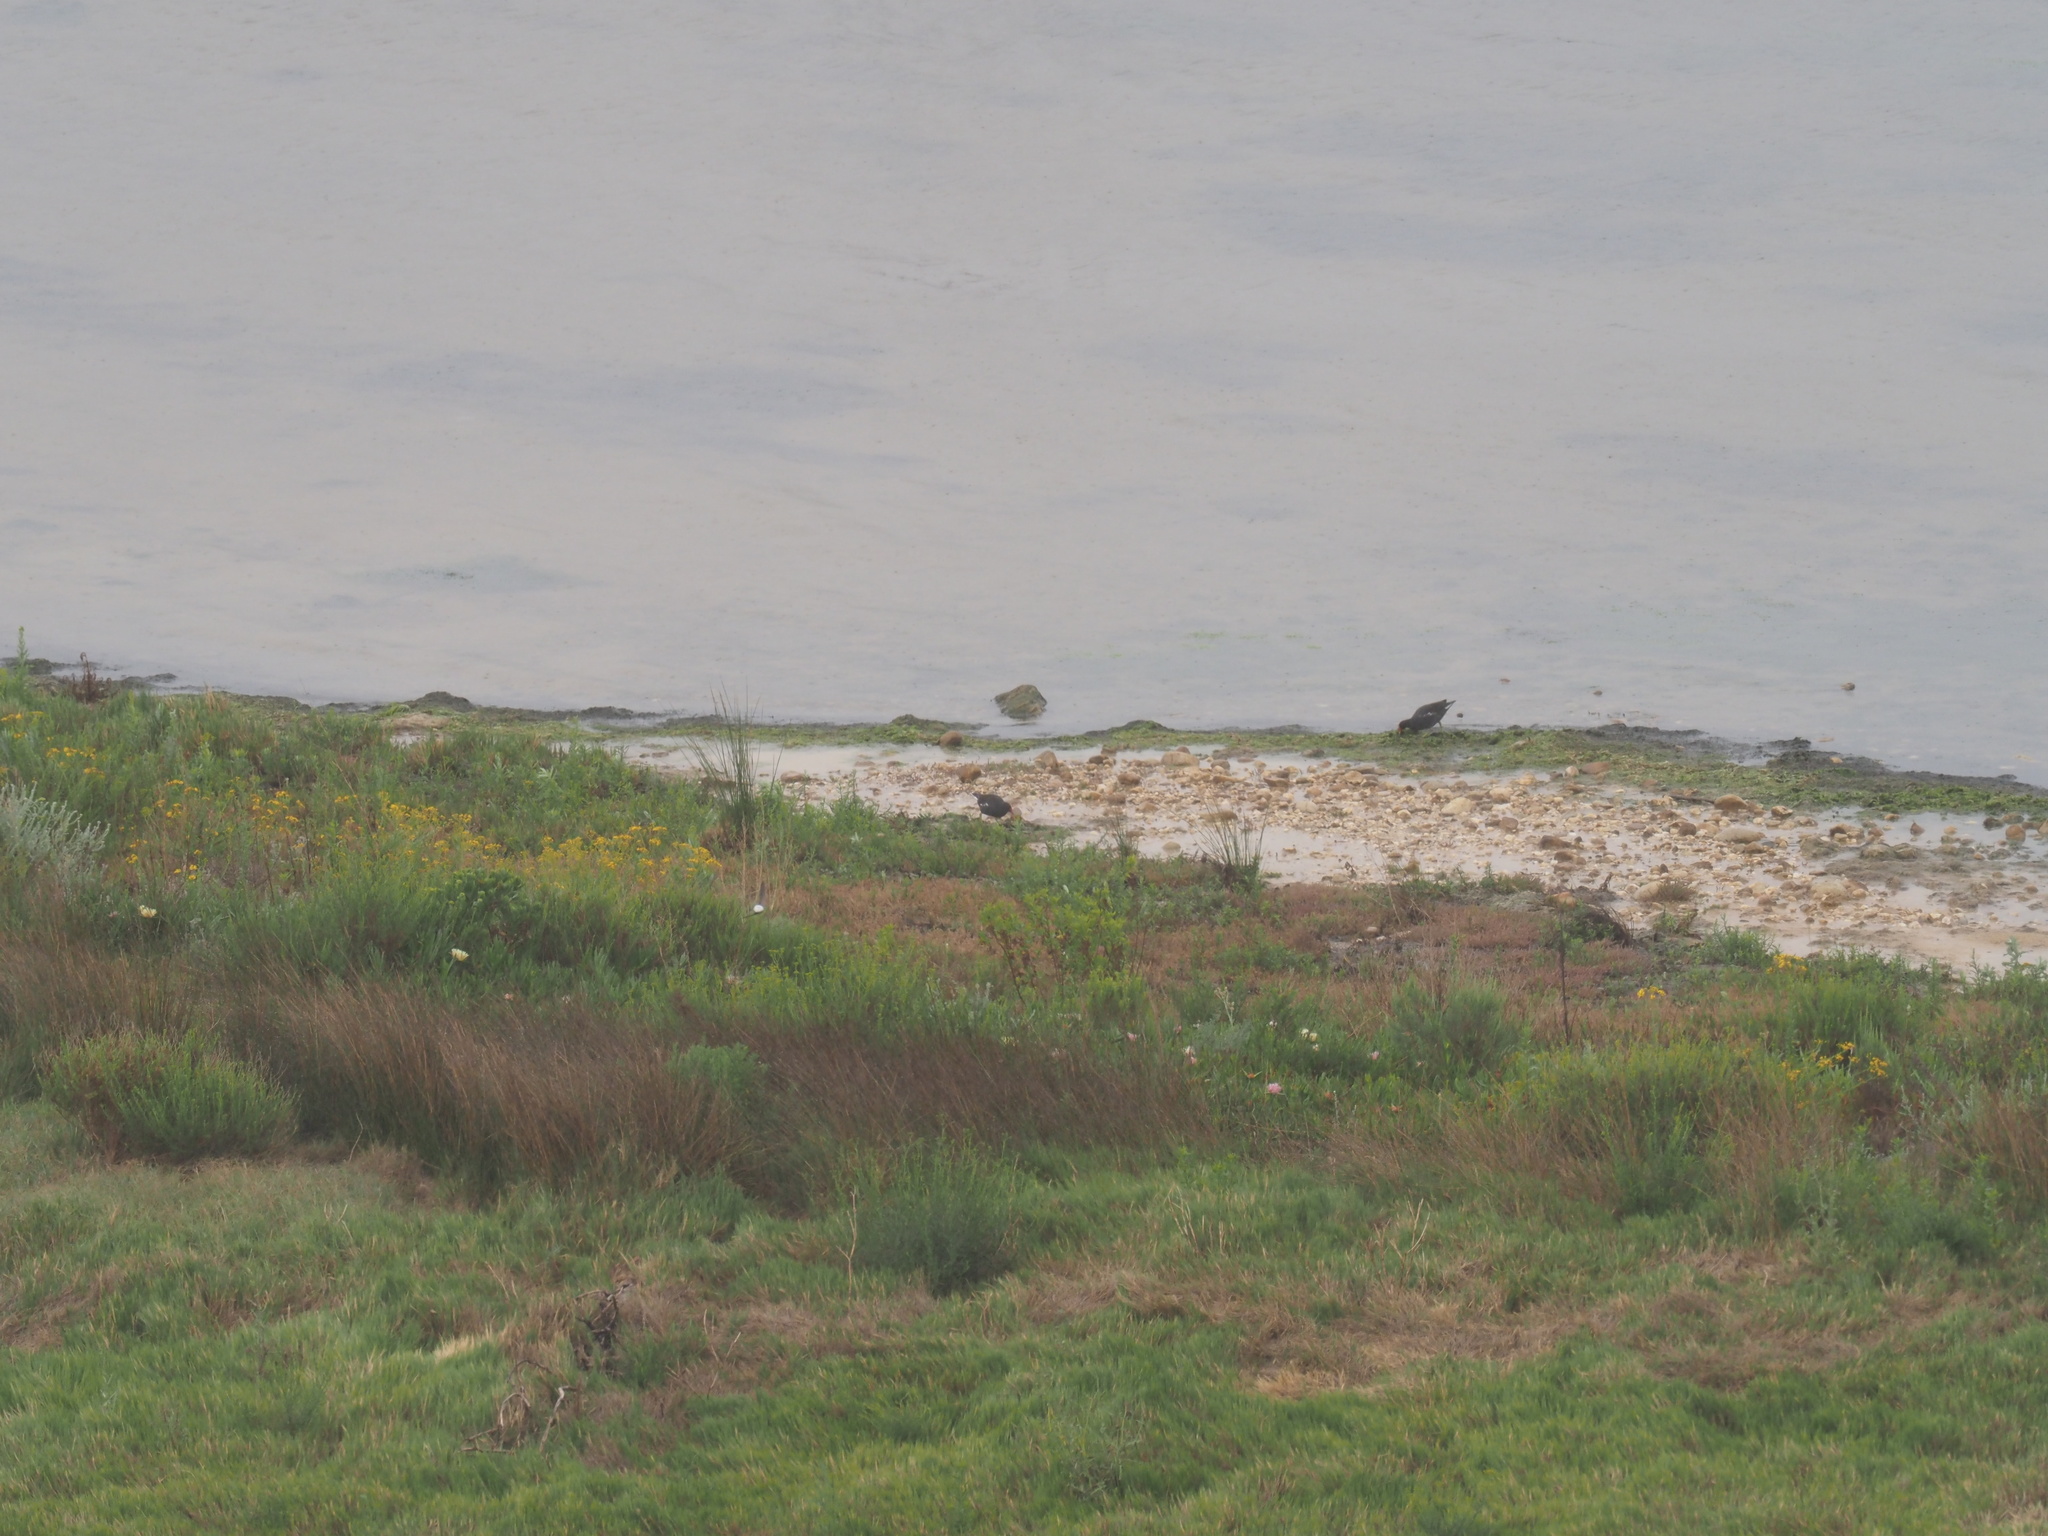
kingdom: Animalia
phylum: Chordata
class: Aves
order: Gruiformes
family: Rallidae
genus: Gallinula
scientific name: Gallinula chloropus
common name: Common moorhen
